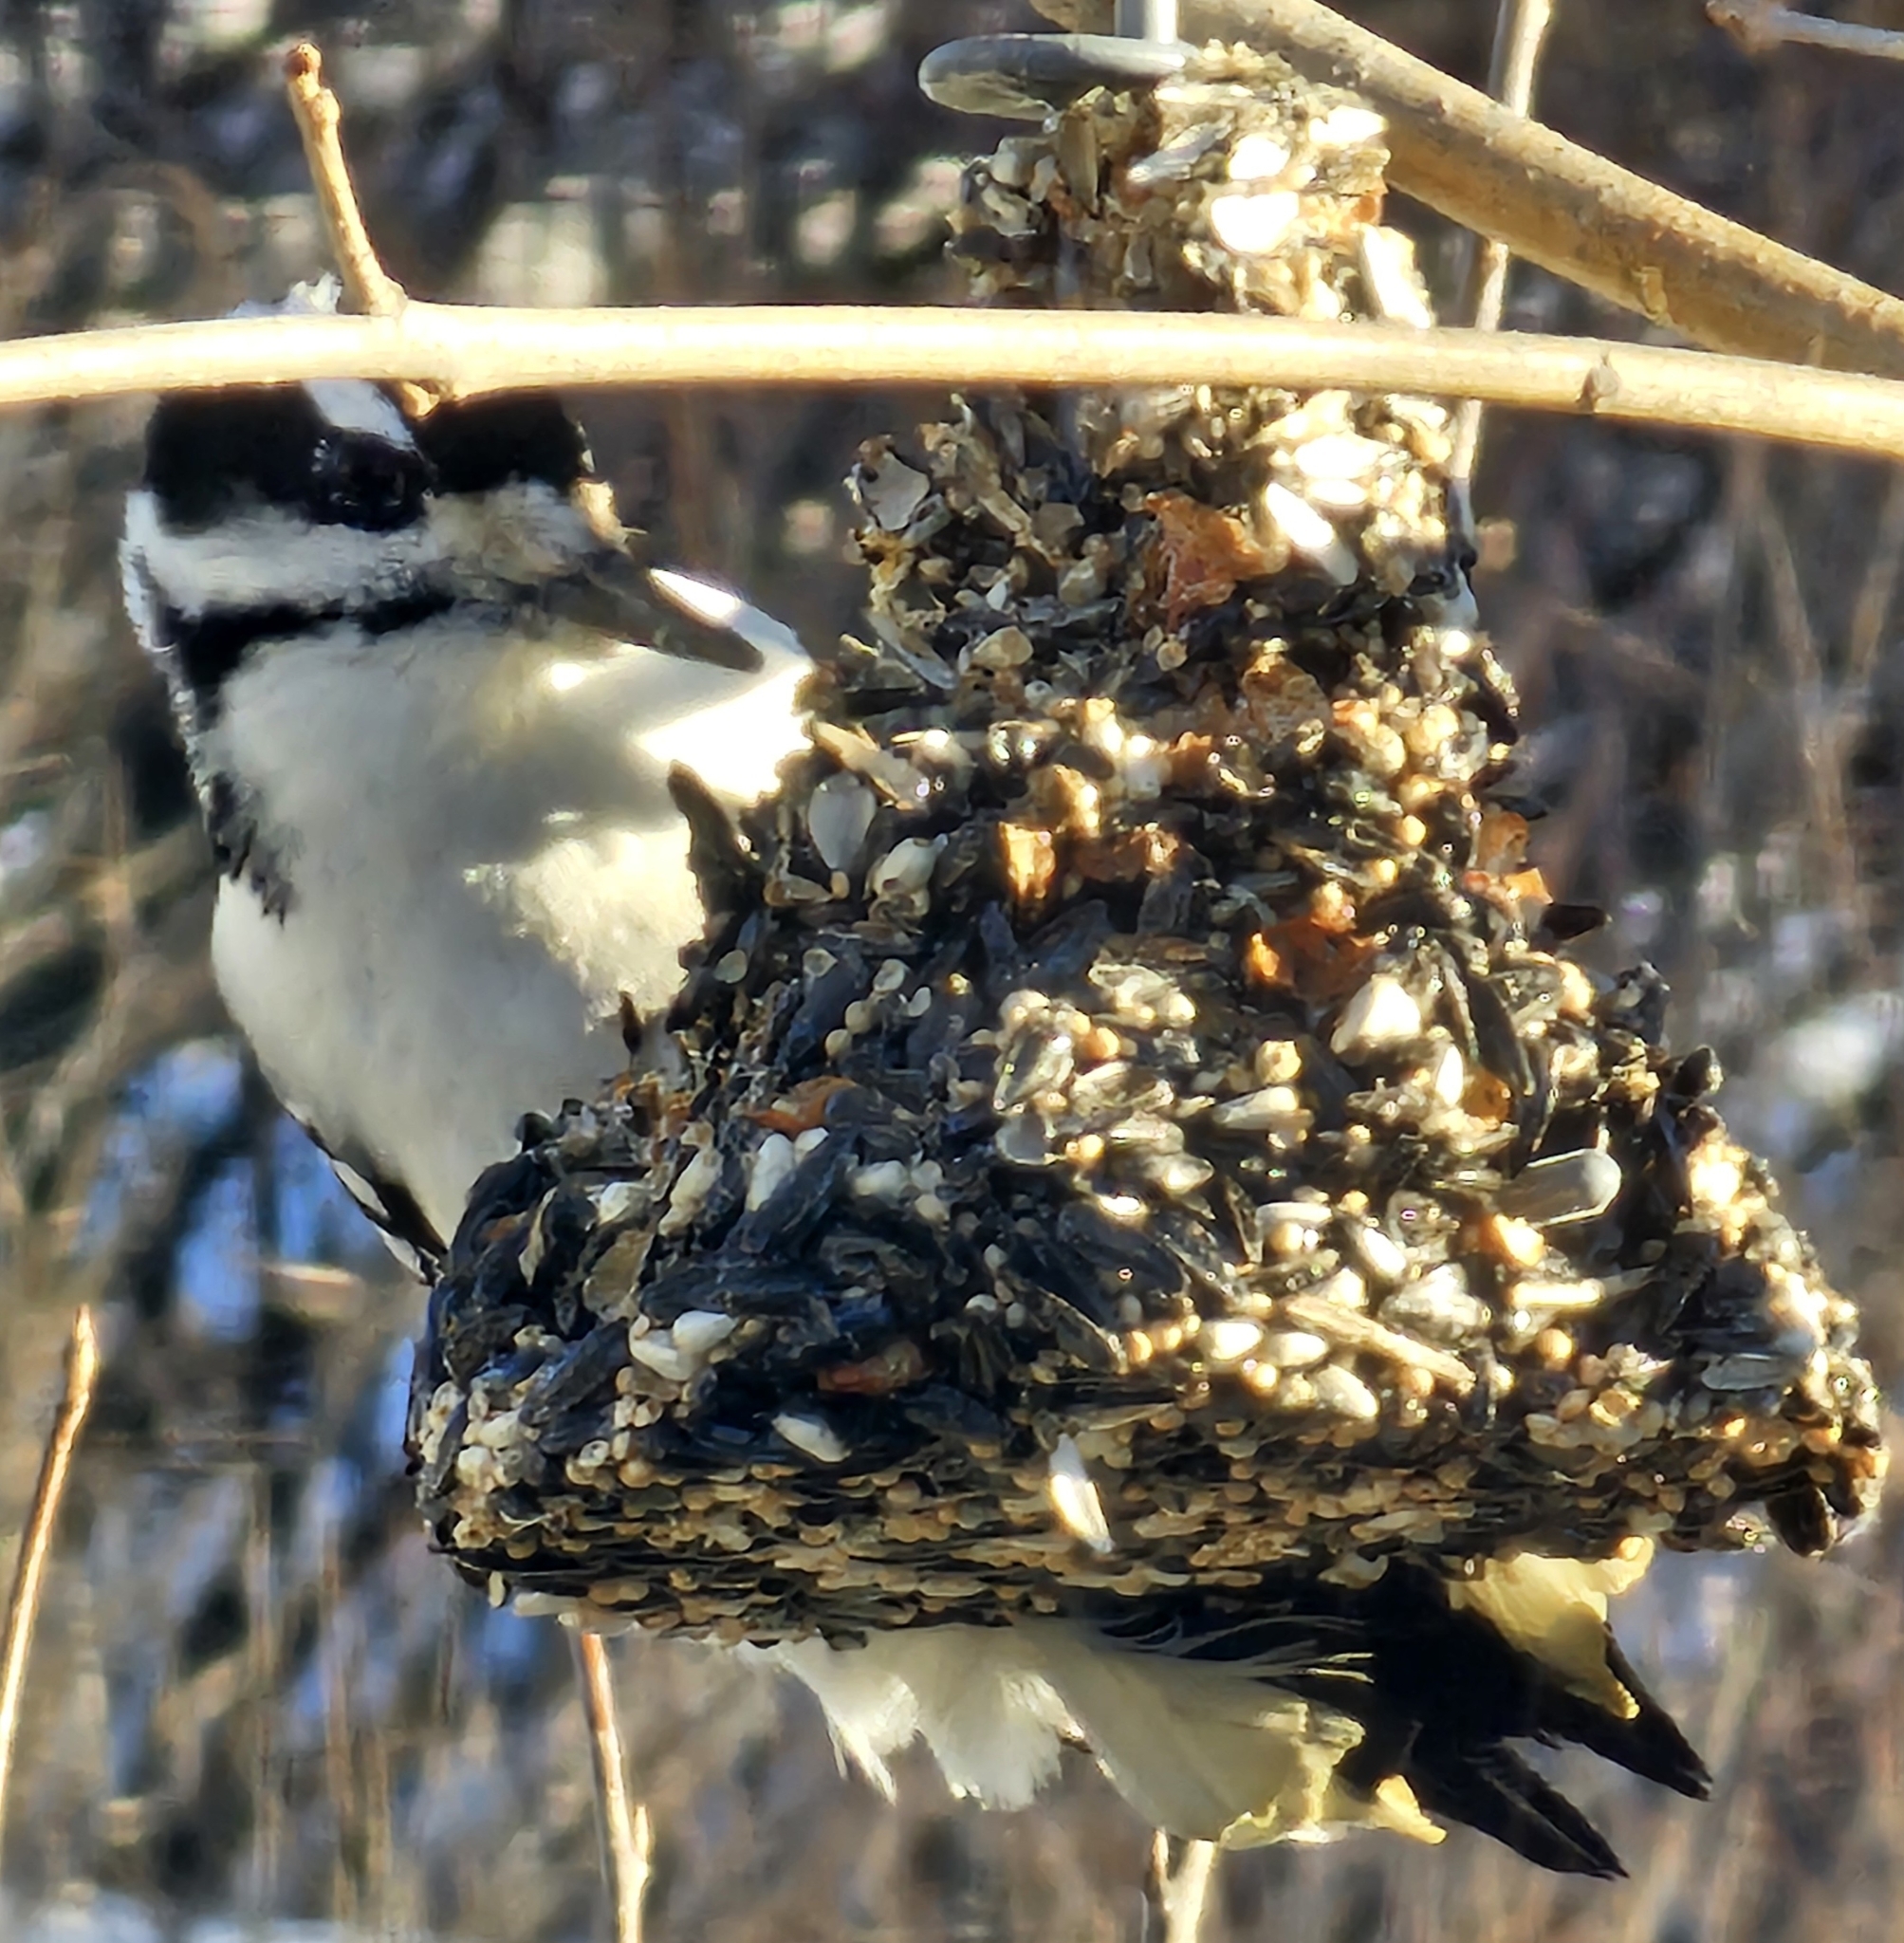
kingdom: Animalia
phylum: Chordata
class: Aves
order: Piciformes
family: Picidae
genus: Leuconotopicus
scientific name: Leuconotopicus villosus
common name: Hairy woodpecker
